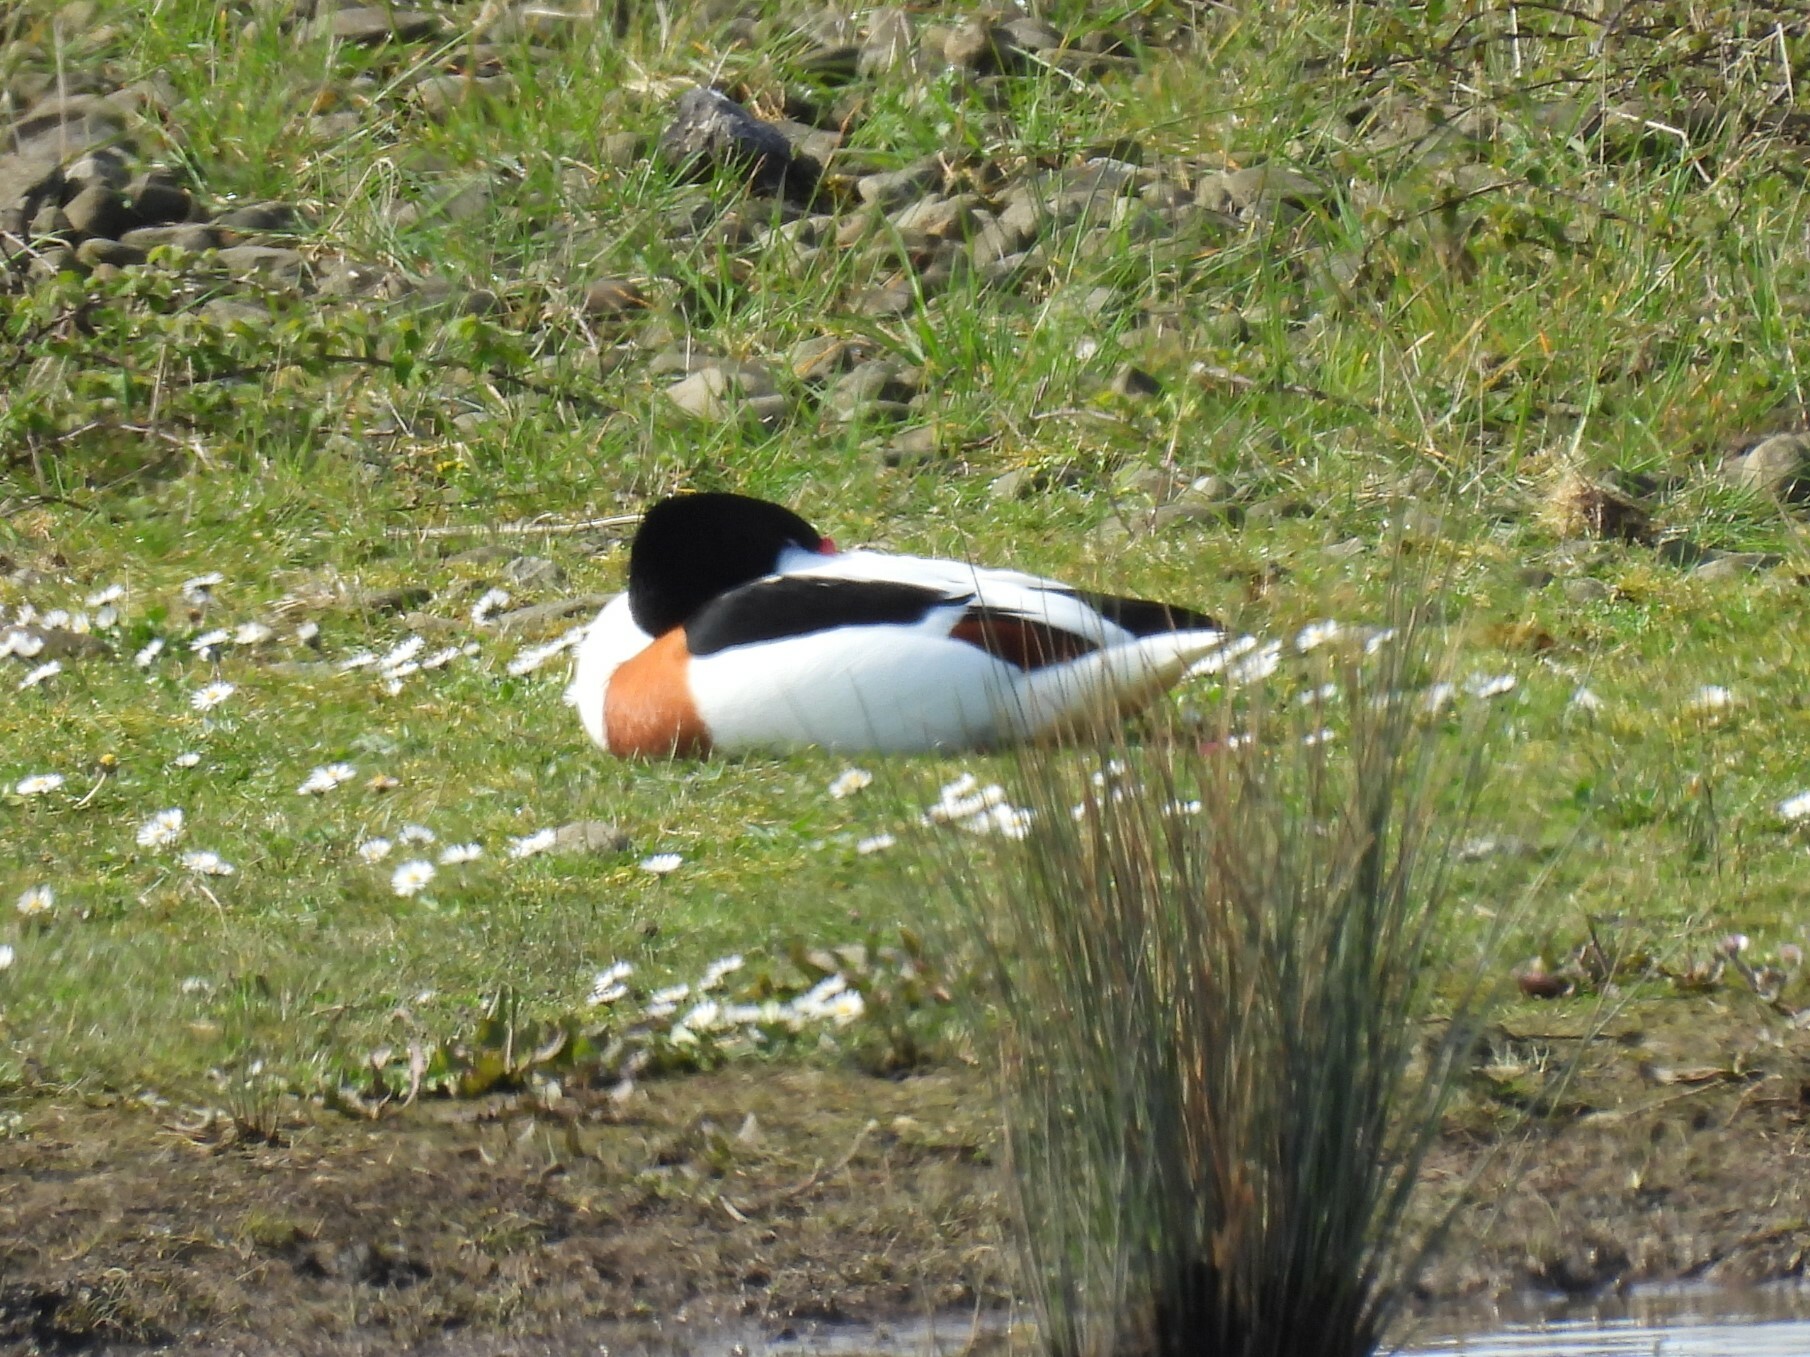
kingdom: Animalia
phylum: Chordata
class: Aves
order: Anseriformes
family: Anatidae
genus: Tadorna
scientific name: Tadorna tadorna
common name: Common shelduck
